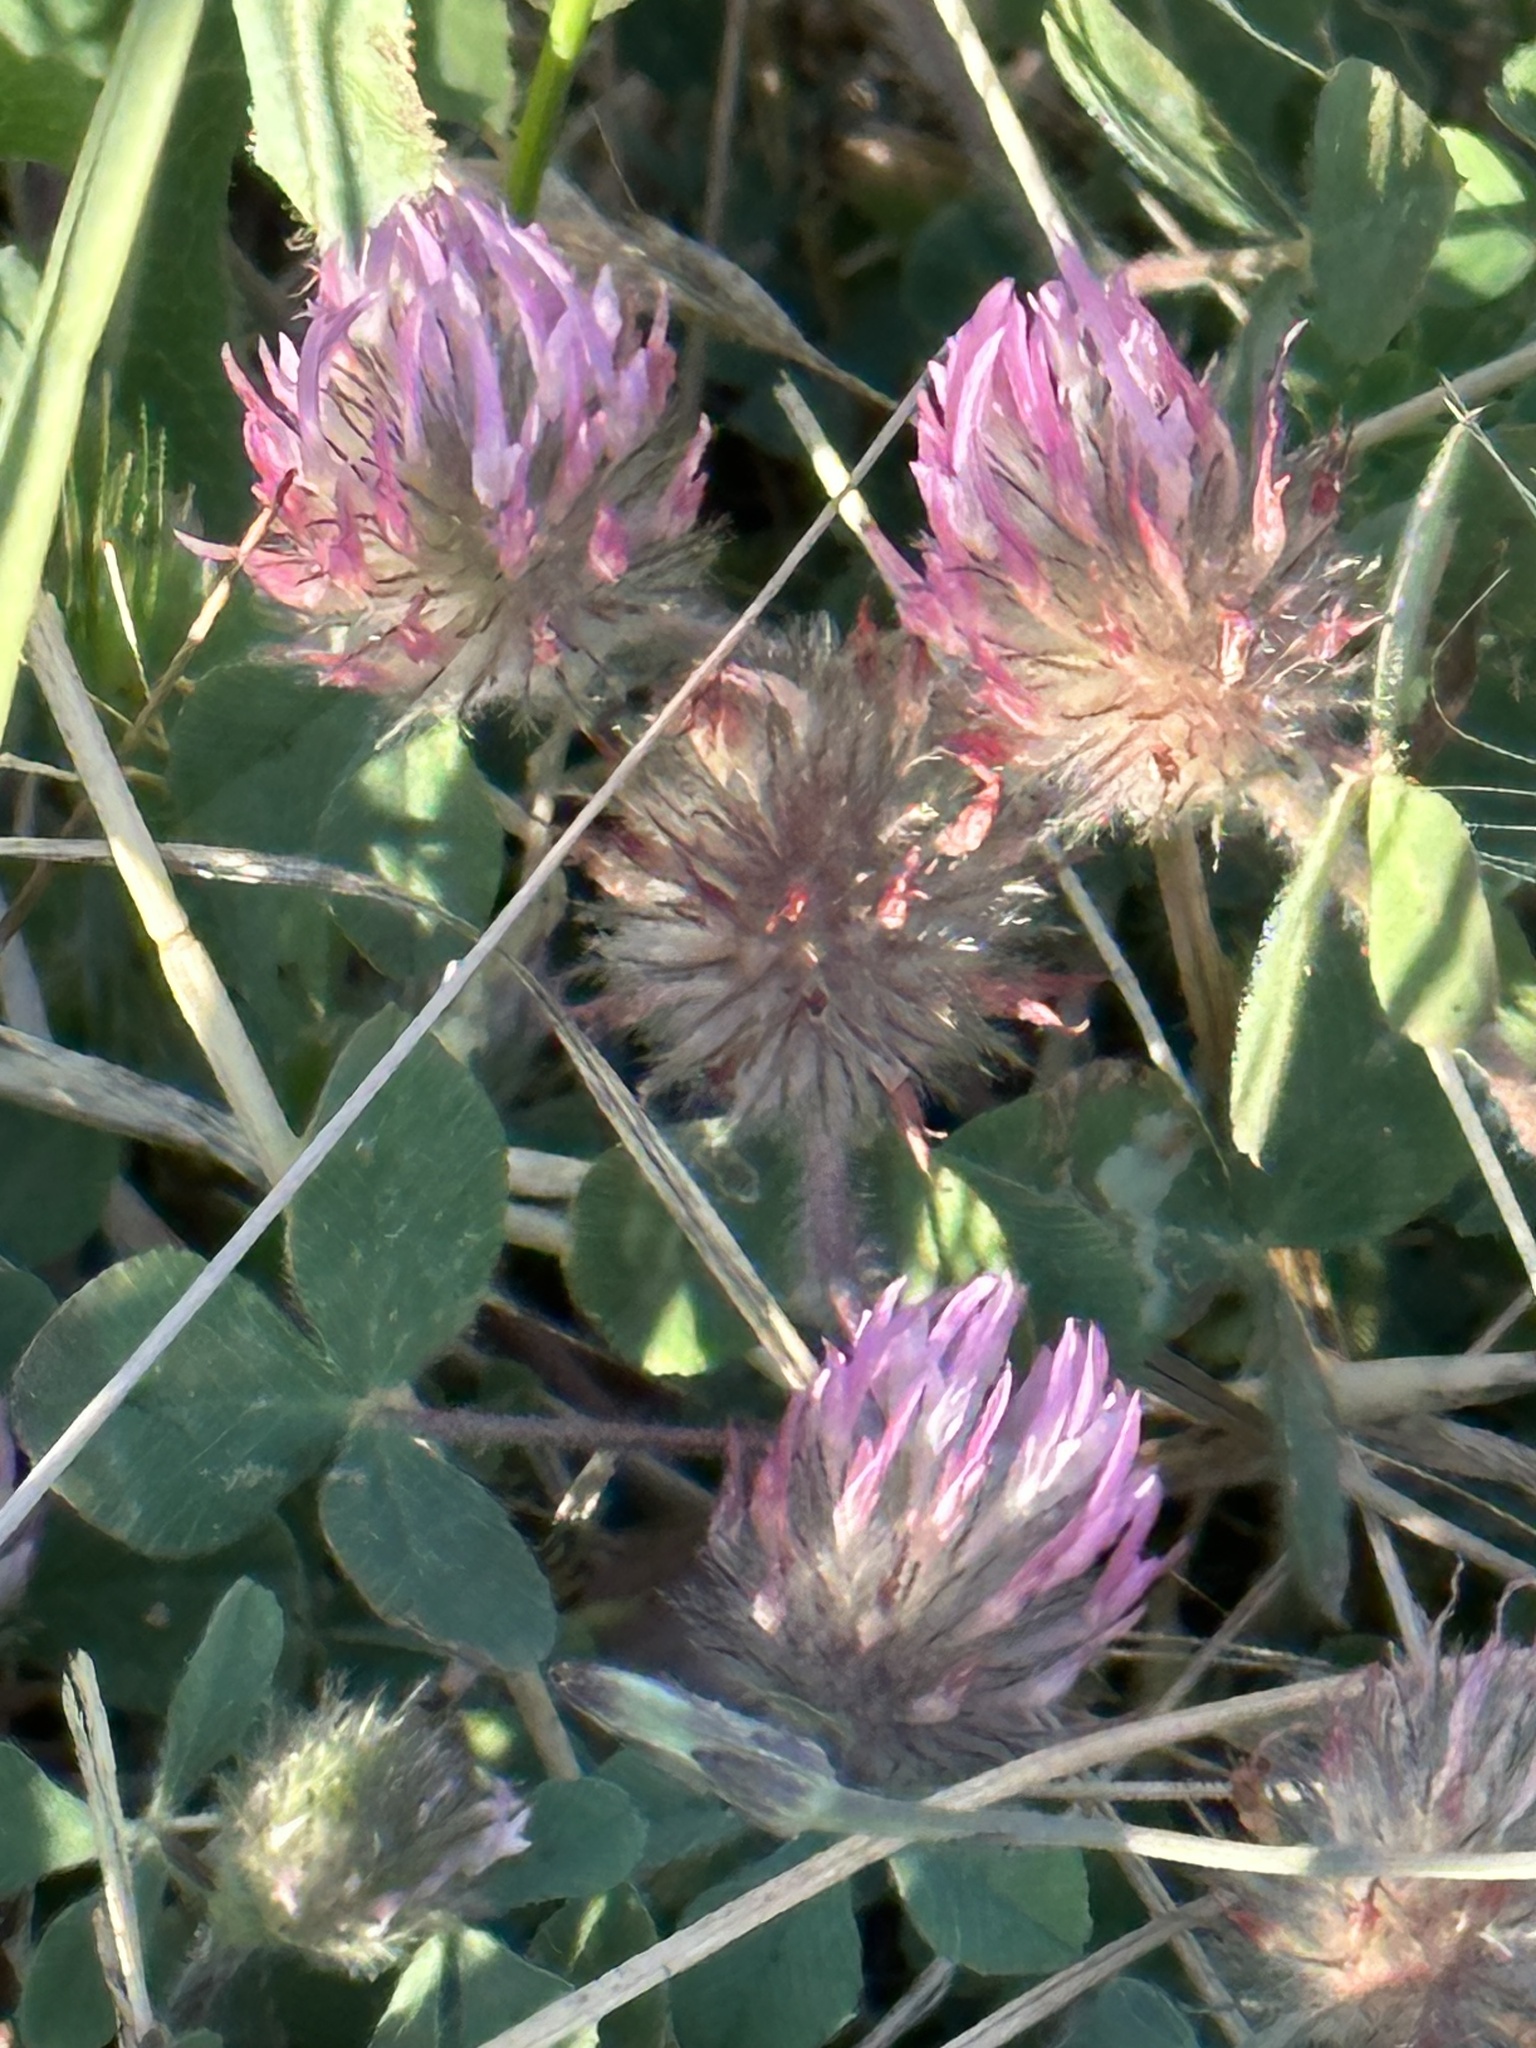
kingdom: Plantae
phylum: Tracheophyta
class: Magnoliopsida
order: Fabales
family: Fabaceae
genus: Trifolium
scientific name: Trifolium hirtum
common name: Rose clover
